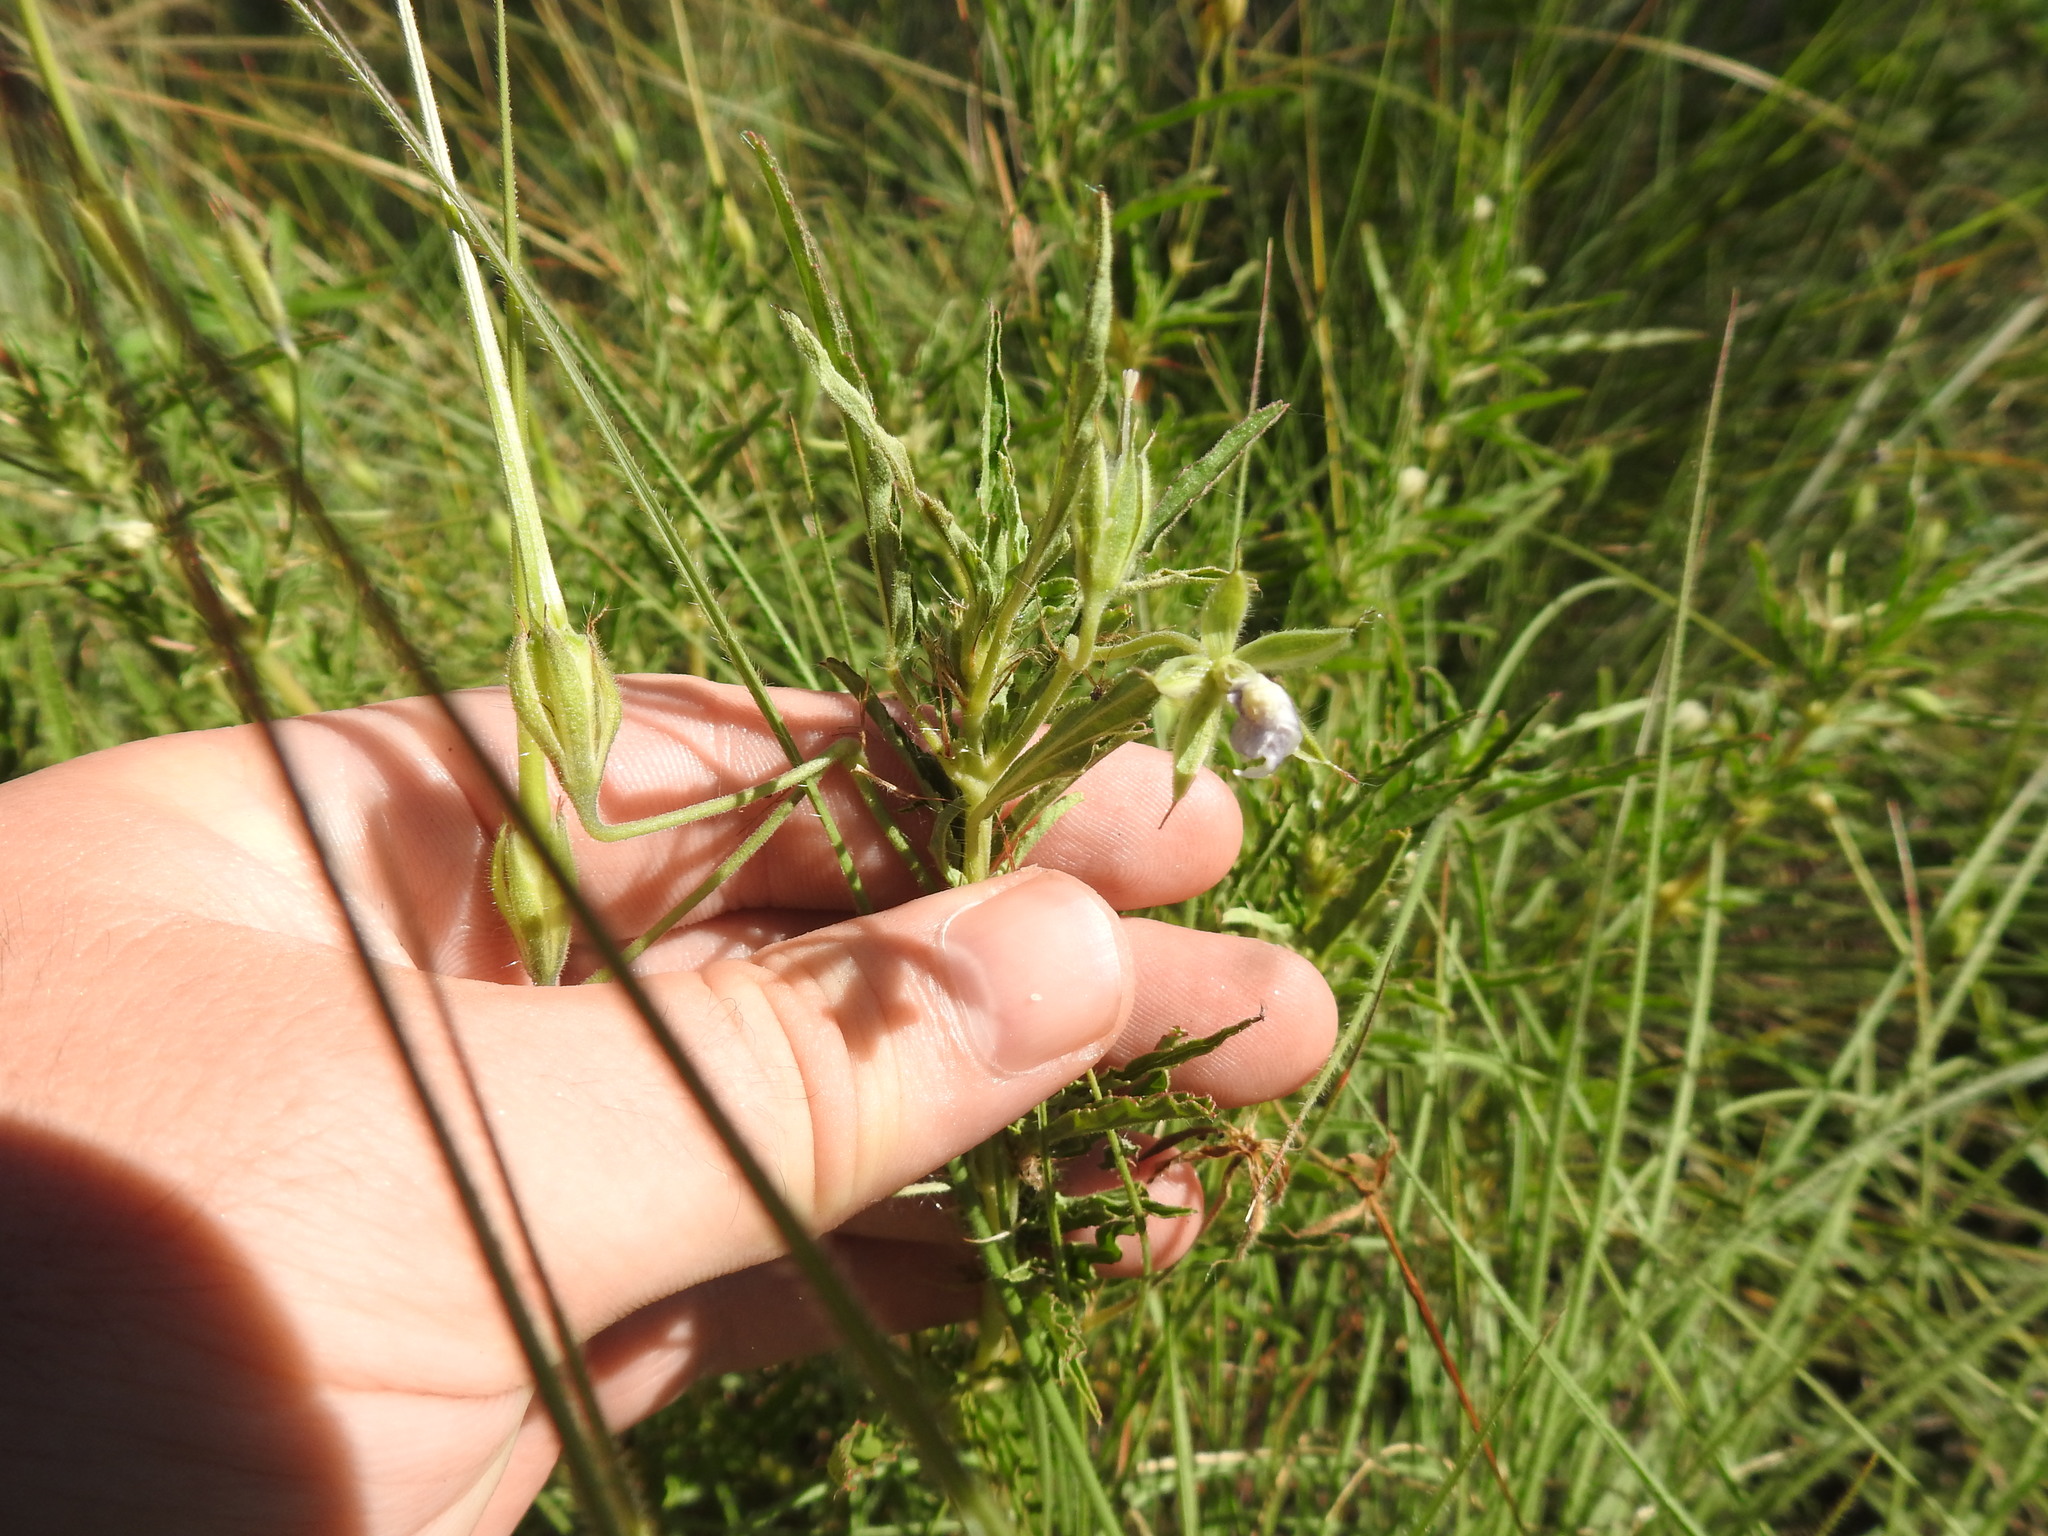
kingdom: Plantae
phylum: Tracheophyta
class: Magnoliopsida
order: Geraniales
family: Geraniaceae
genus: Monsonia
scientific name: Monsonia attenuata
